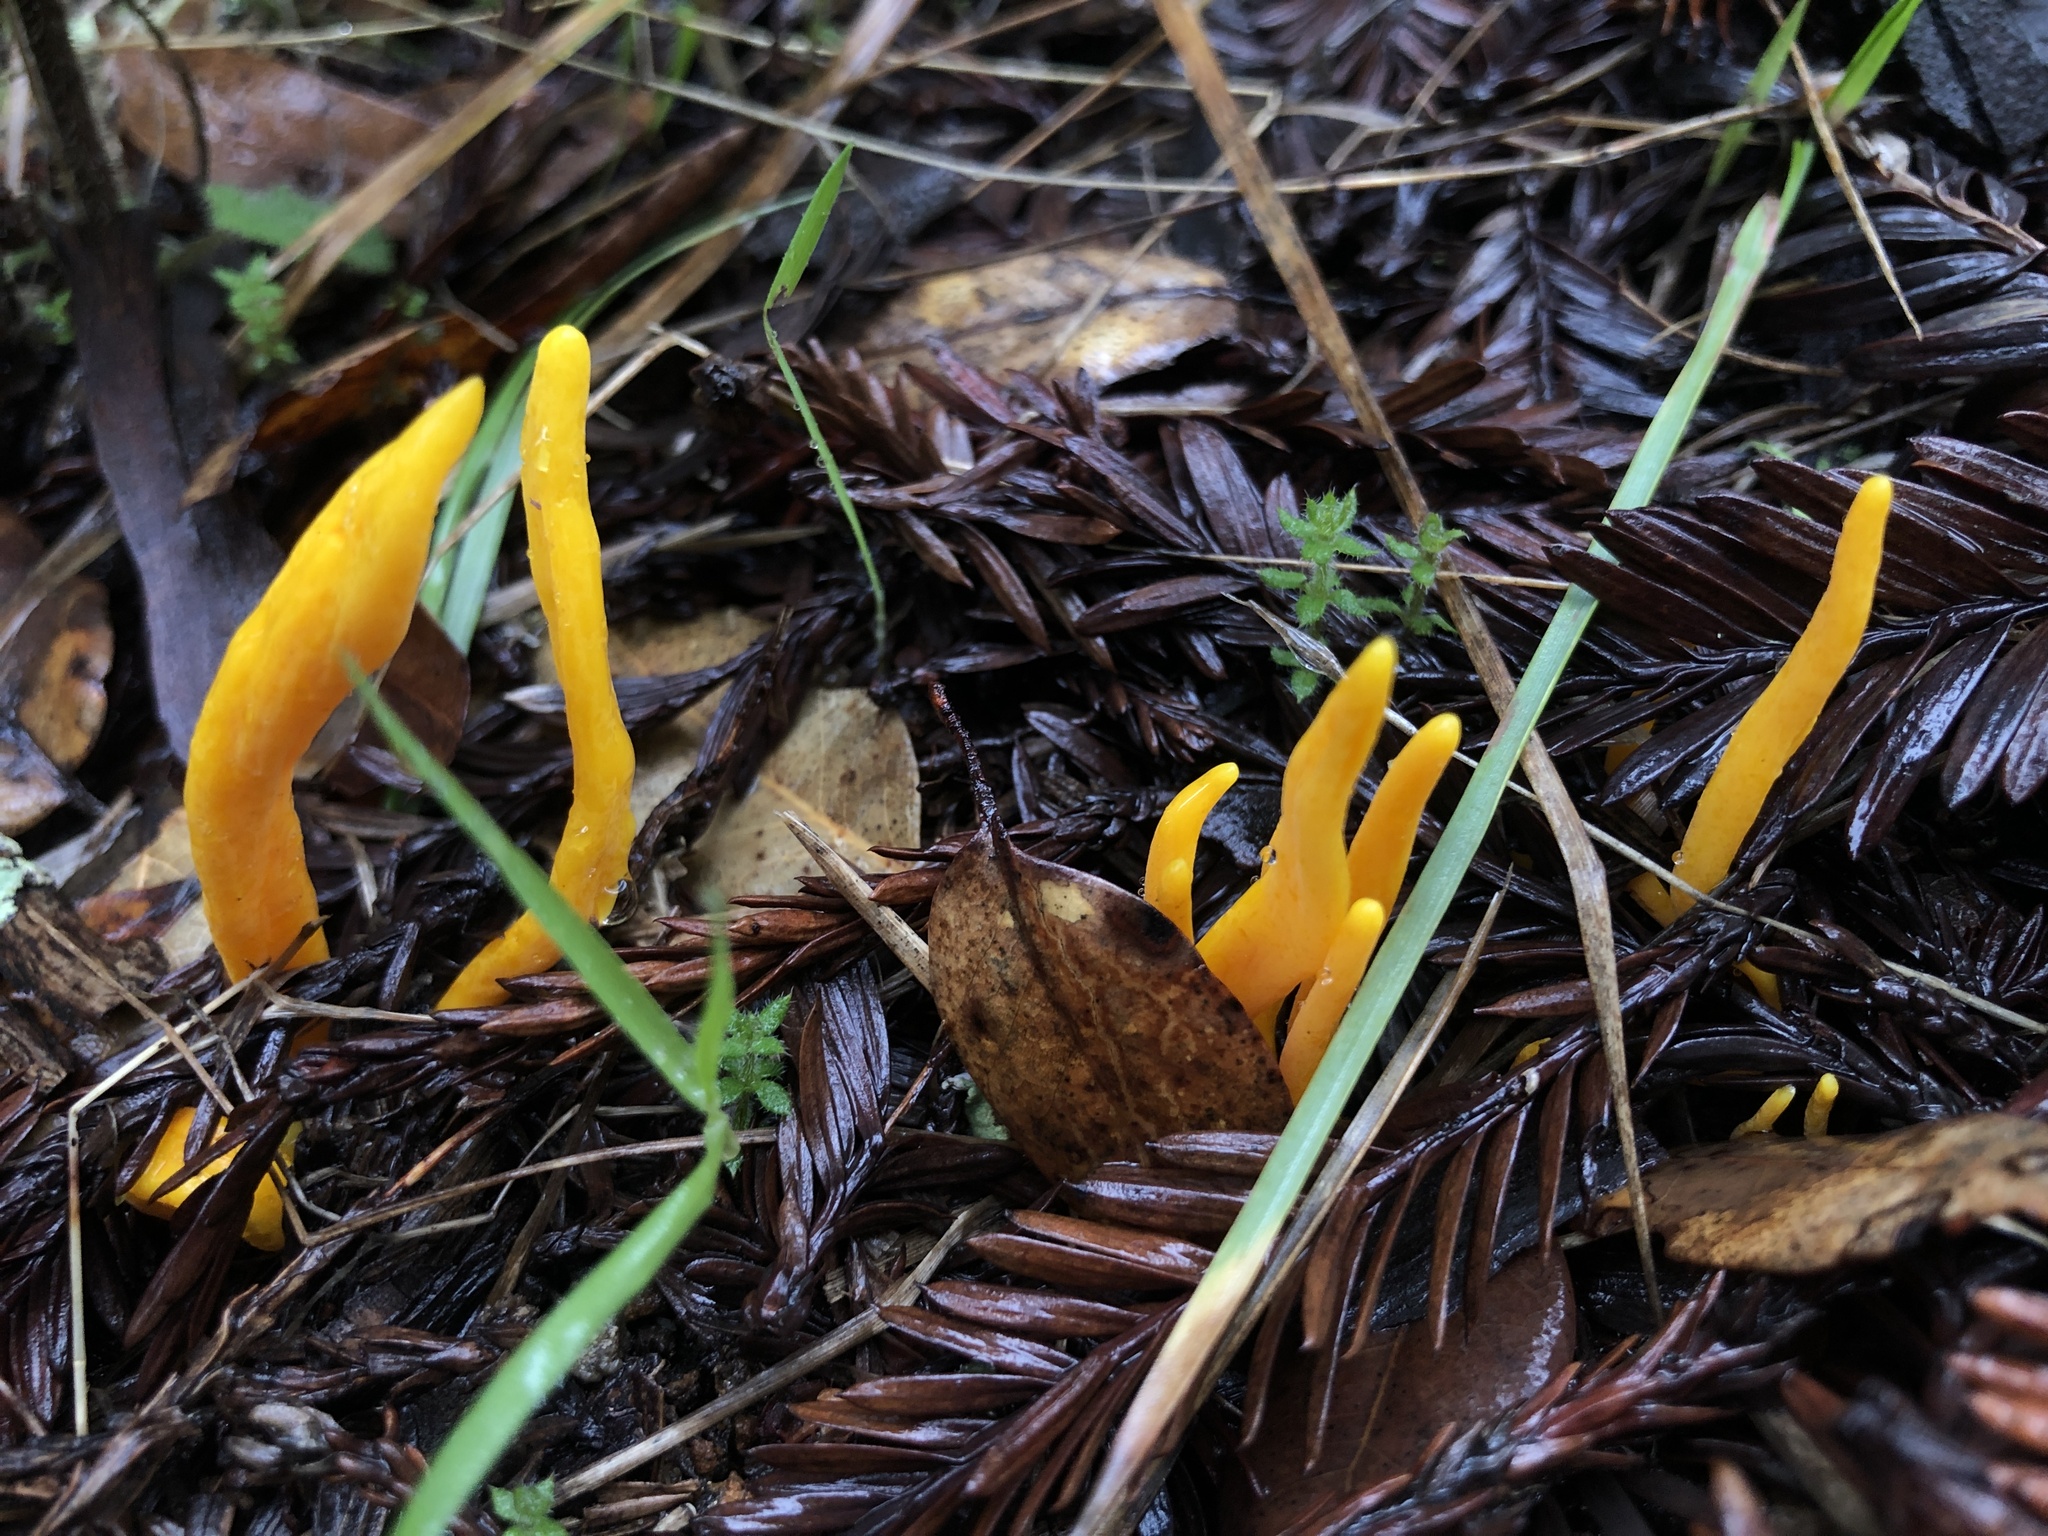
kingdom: Fungi
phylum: Basidiomycota
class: Agaricomycetes
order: Agaricales
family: Clavariaceae
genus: Clavulinopsis
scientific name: Clavulinopsis laeticolor
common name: Handsome club
